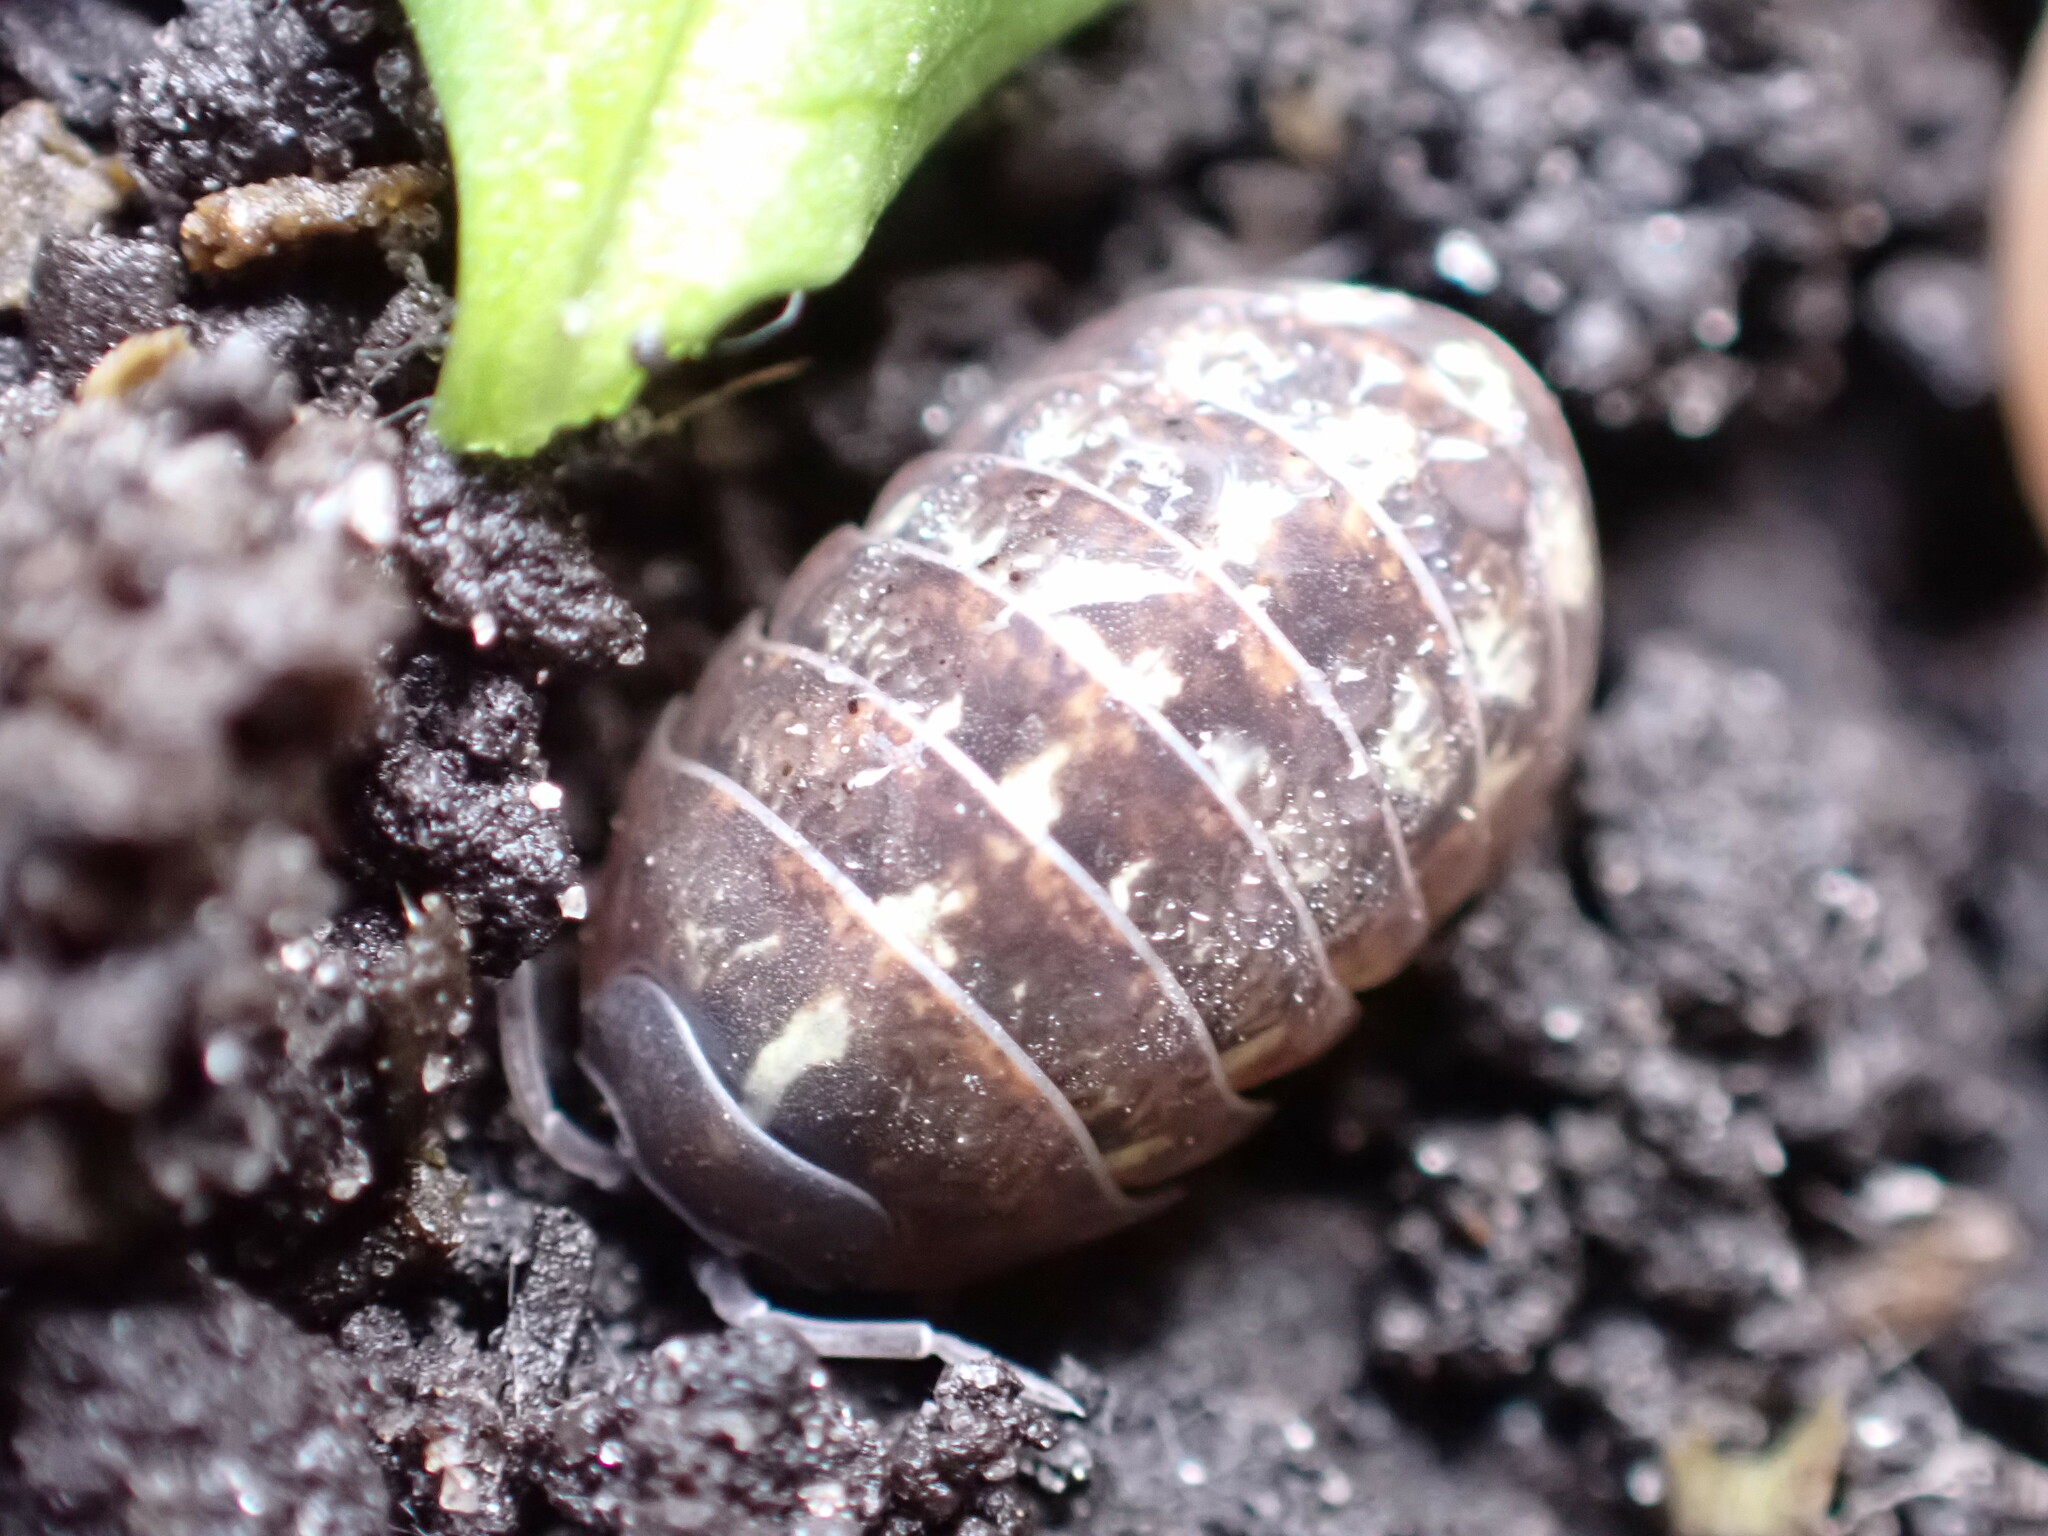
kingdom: Animalia
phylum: Arthropoda
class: Malacostraca
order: Isopoda
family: Armadillidiidae
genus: Armadillidium
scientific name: Armadillidium vulgare
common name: Common pill woodlouse
